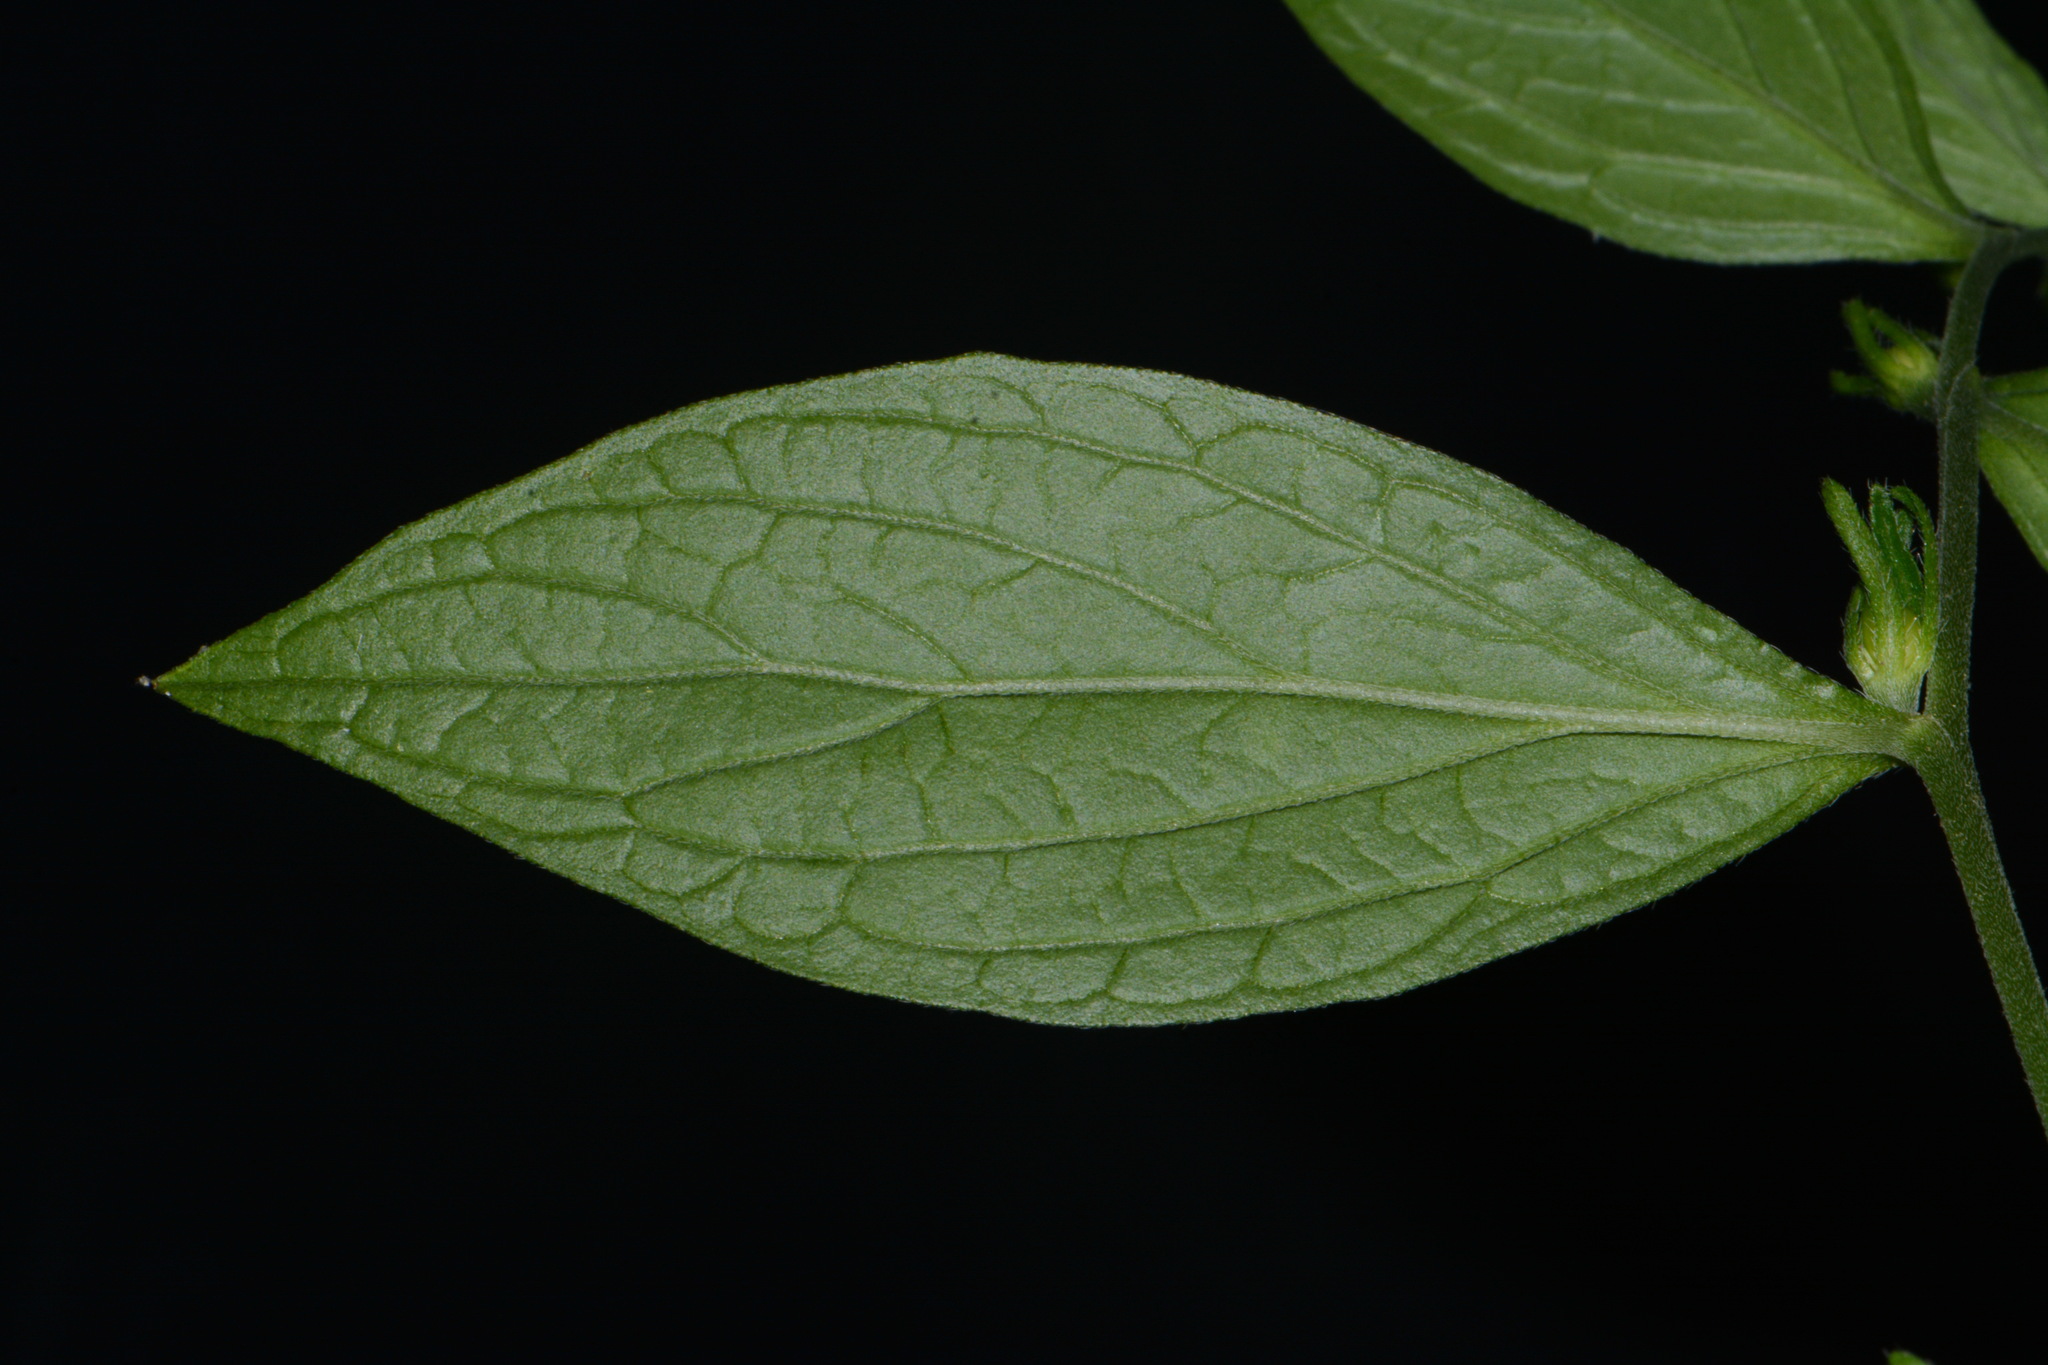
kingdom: Plantae
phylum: Tracheophyta
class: Magnoliopsida
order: Boraginales
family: Boraginaceae
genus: Lithospermum
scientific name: Lithospermum latifolium
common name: American gromwell
